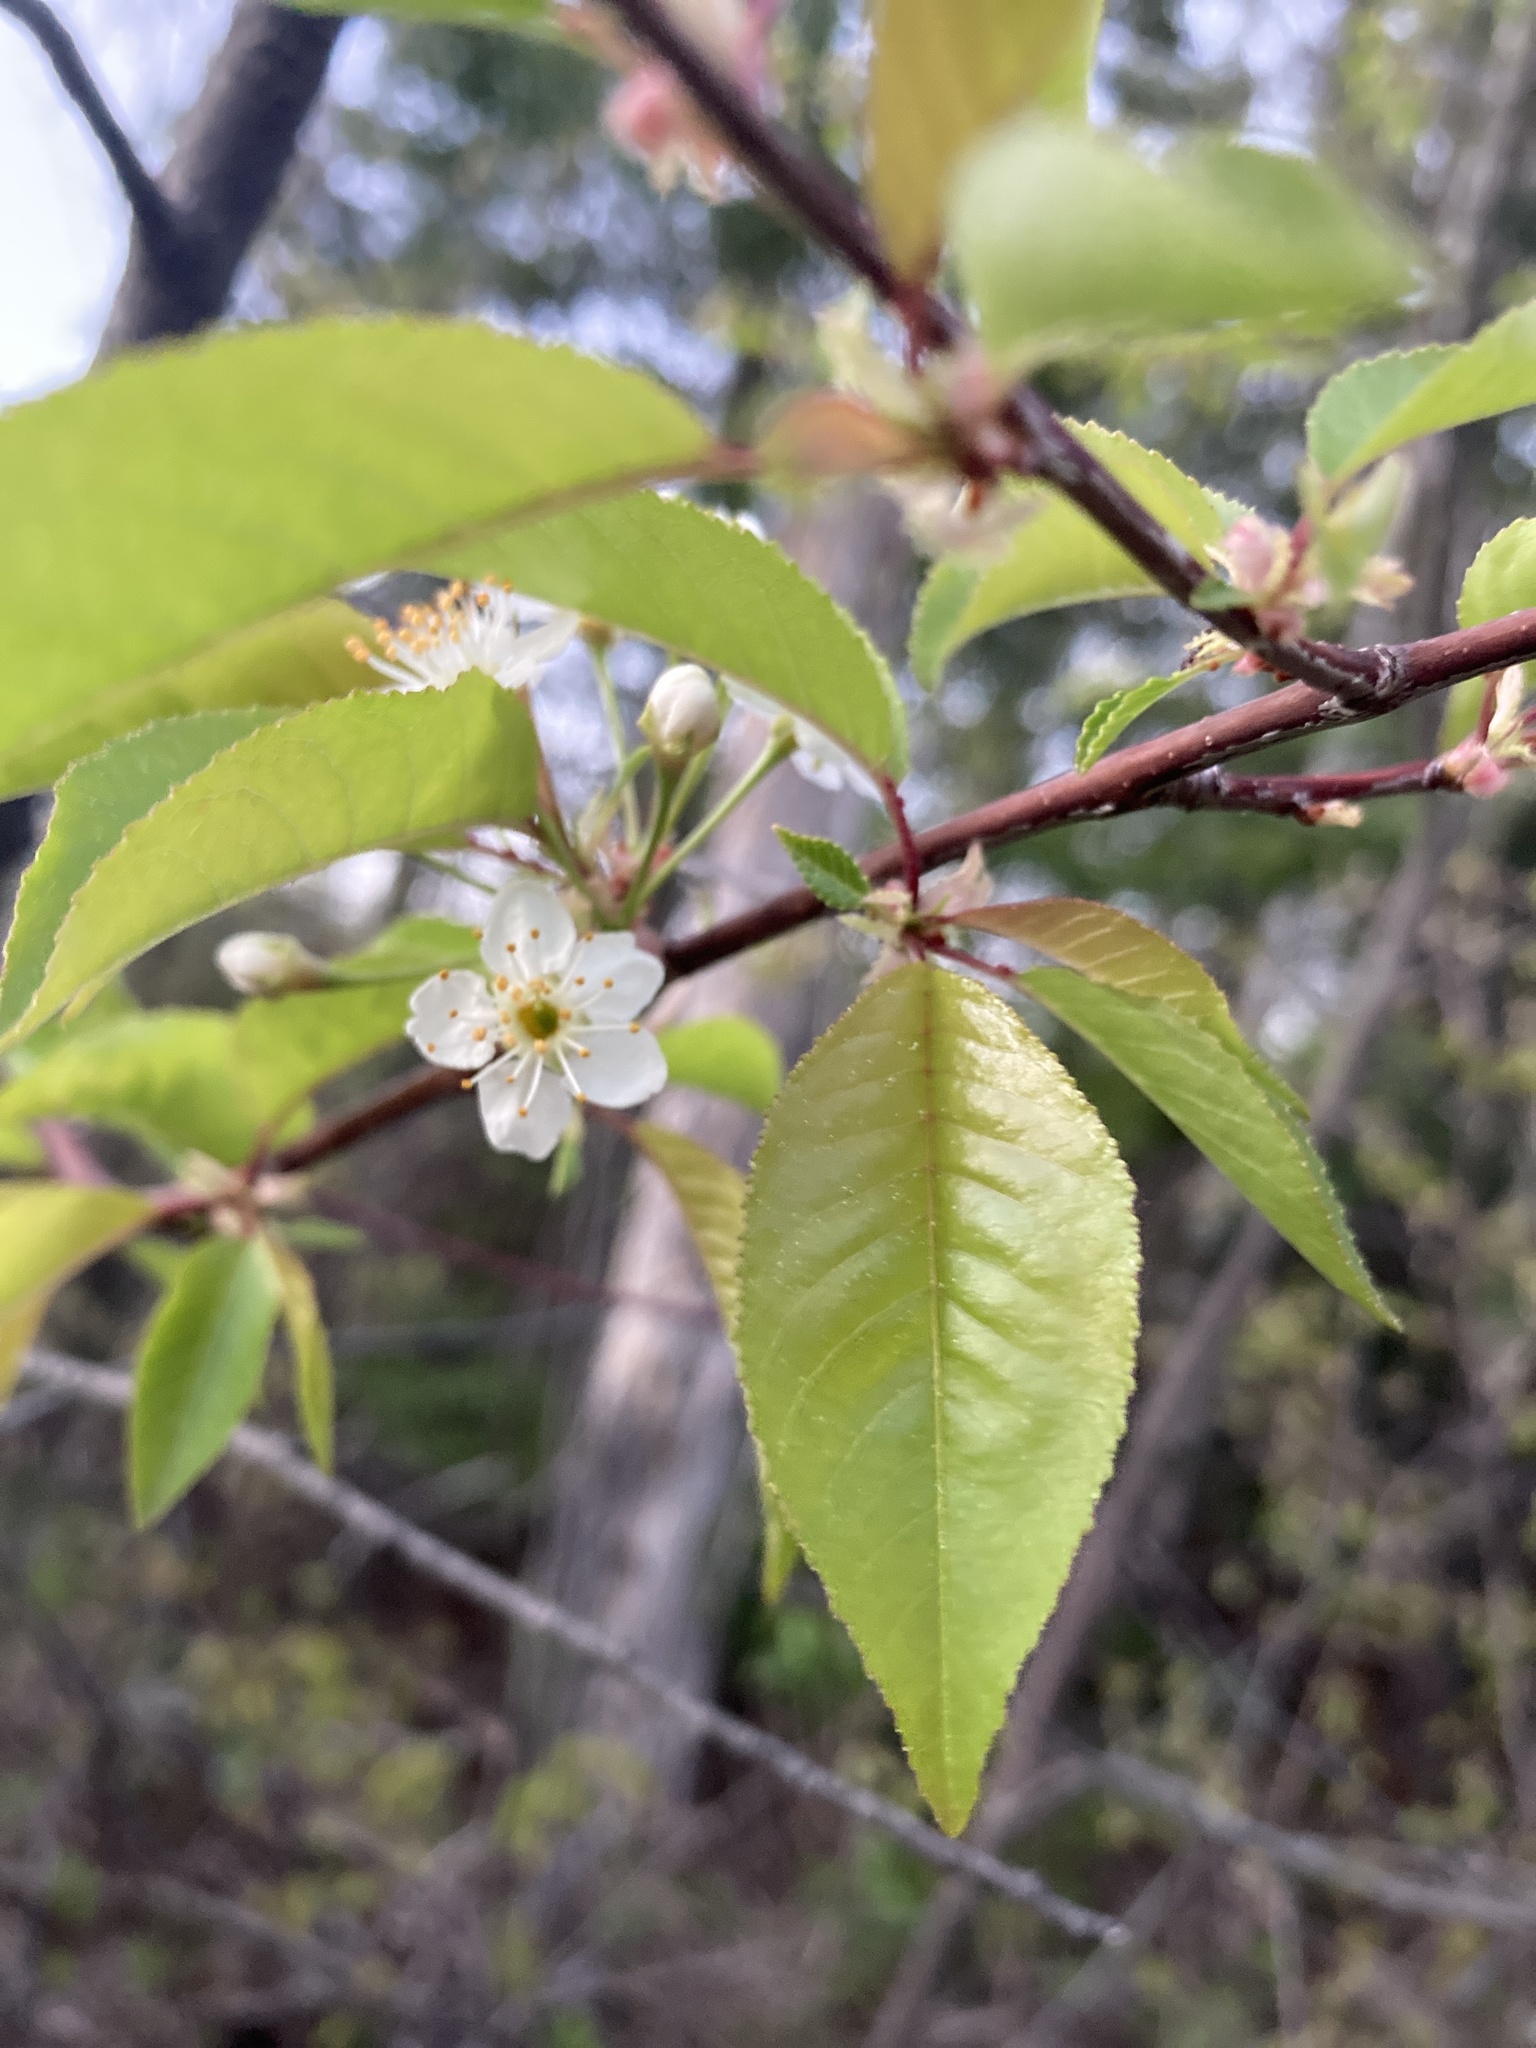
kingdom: Plantae
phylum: Tracheophyta
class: Magnoliopsida
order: Rosales
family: Rosaceae
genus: Prunus
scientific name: Prunus pensylvanica
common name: Pin cherry
